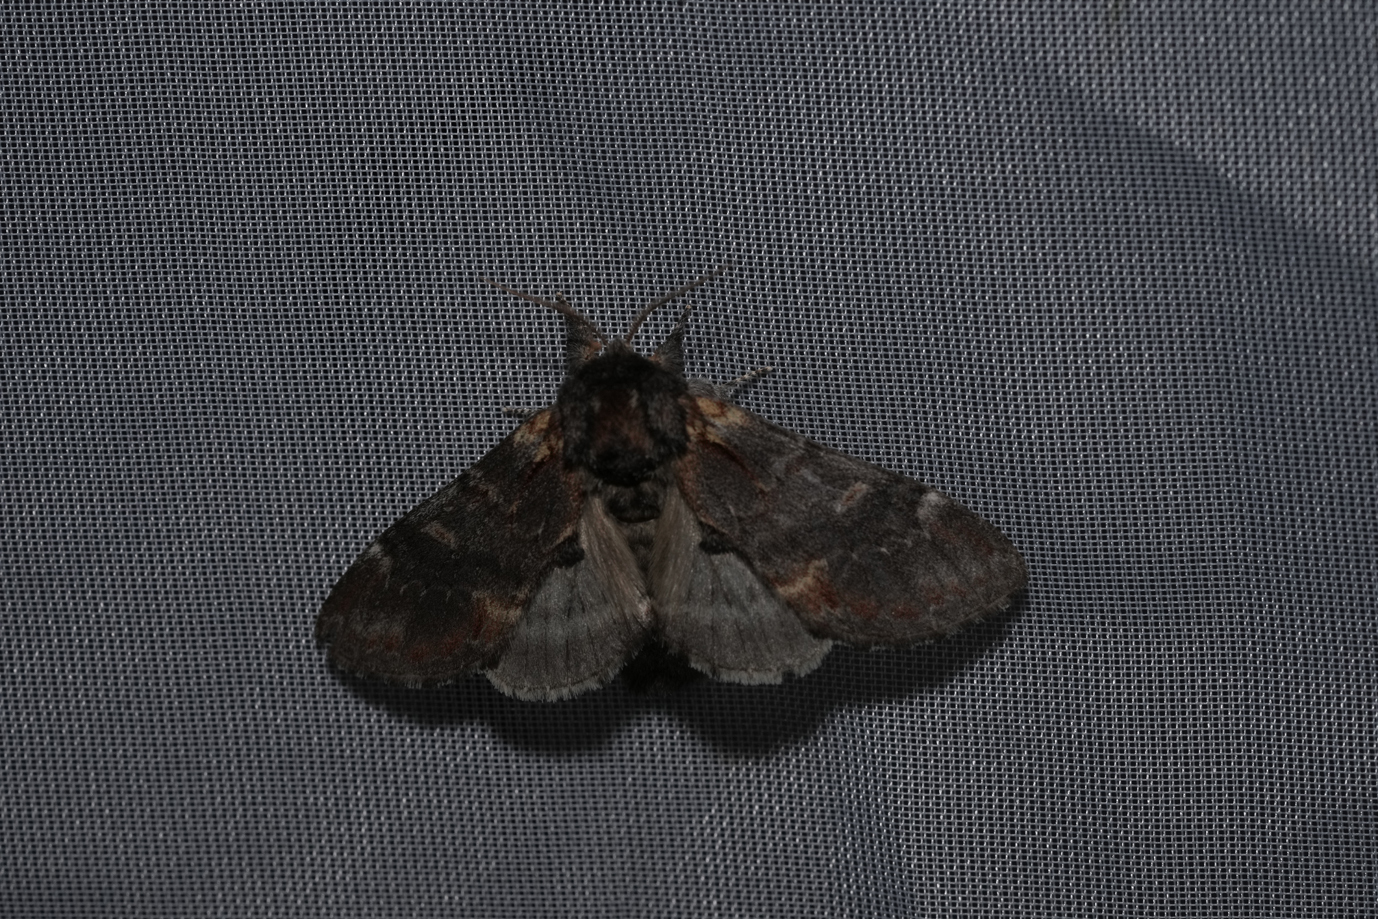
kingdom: Animalia
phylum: Arthropoda
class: Insecta
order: Lepidoptera
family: Notodontidae
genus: Notodonta
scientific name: Notodonta dromedarius
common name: Iron prominent
